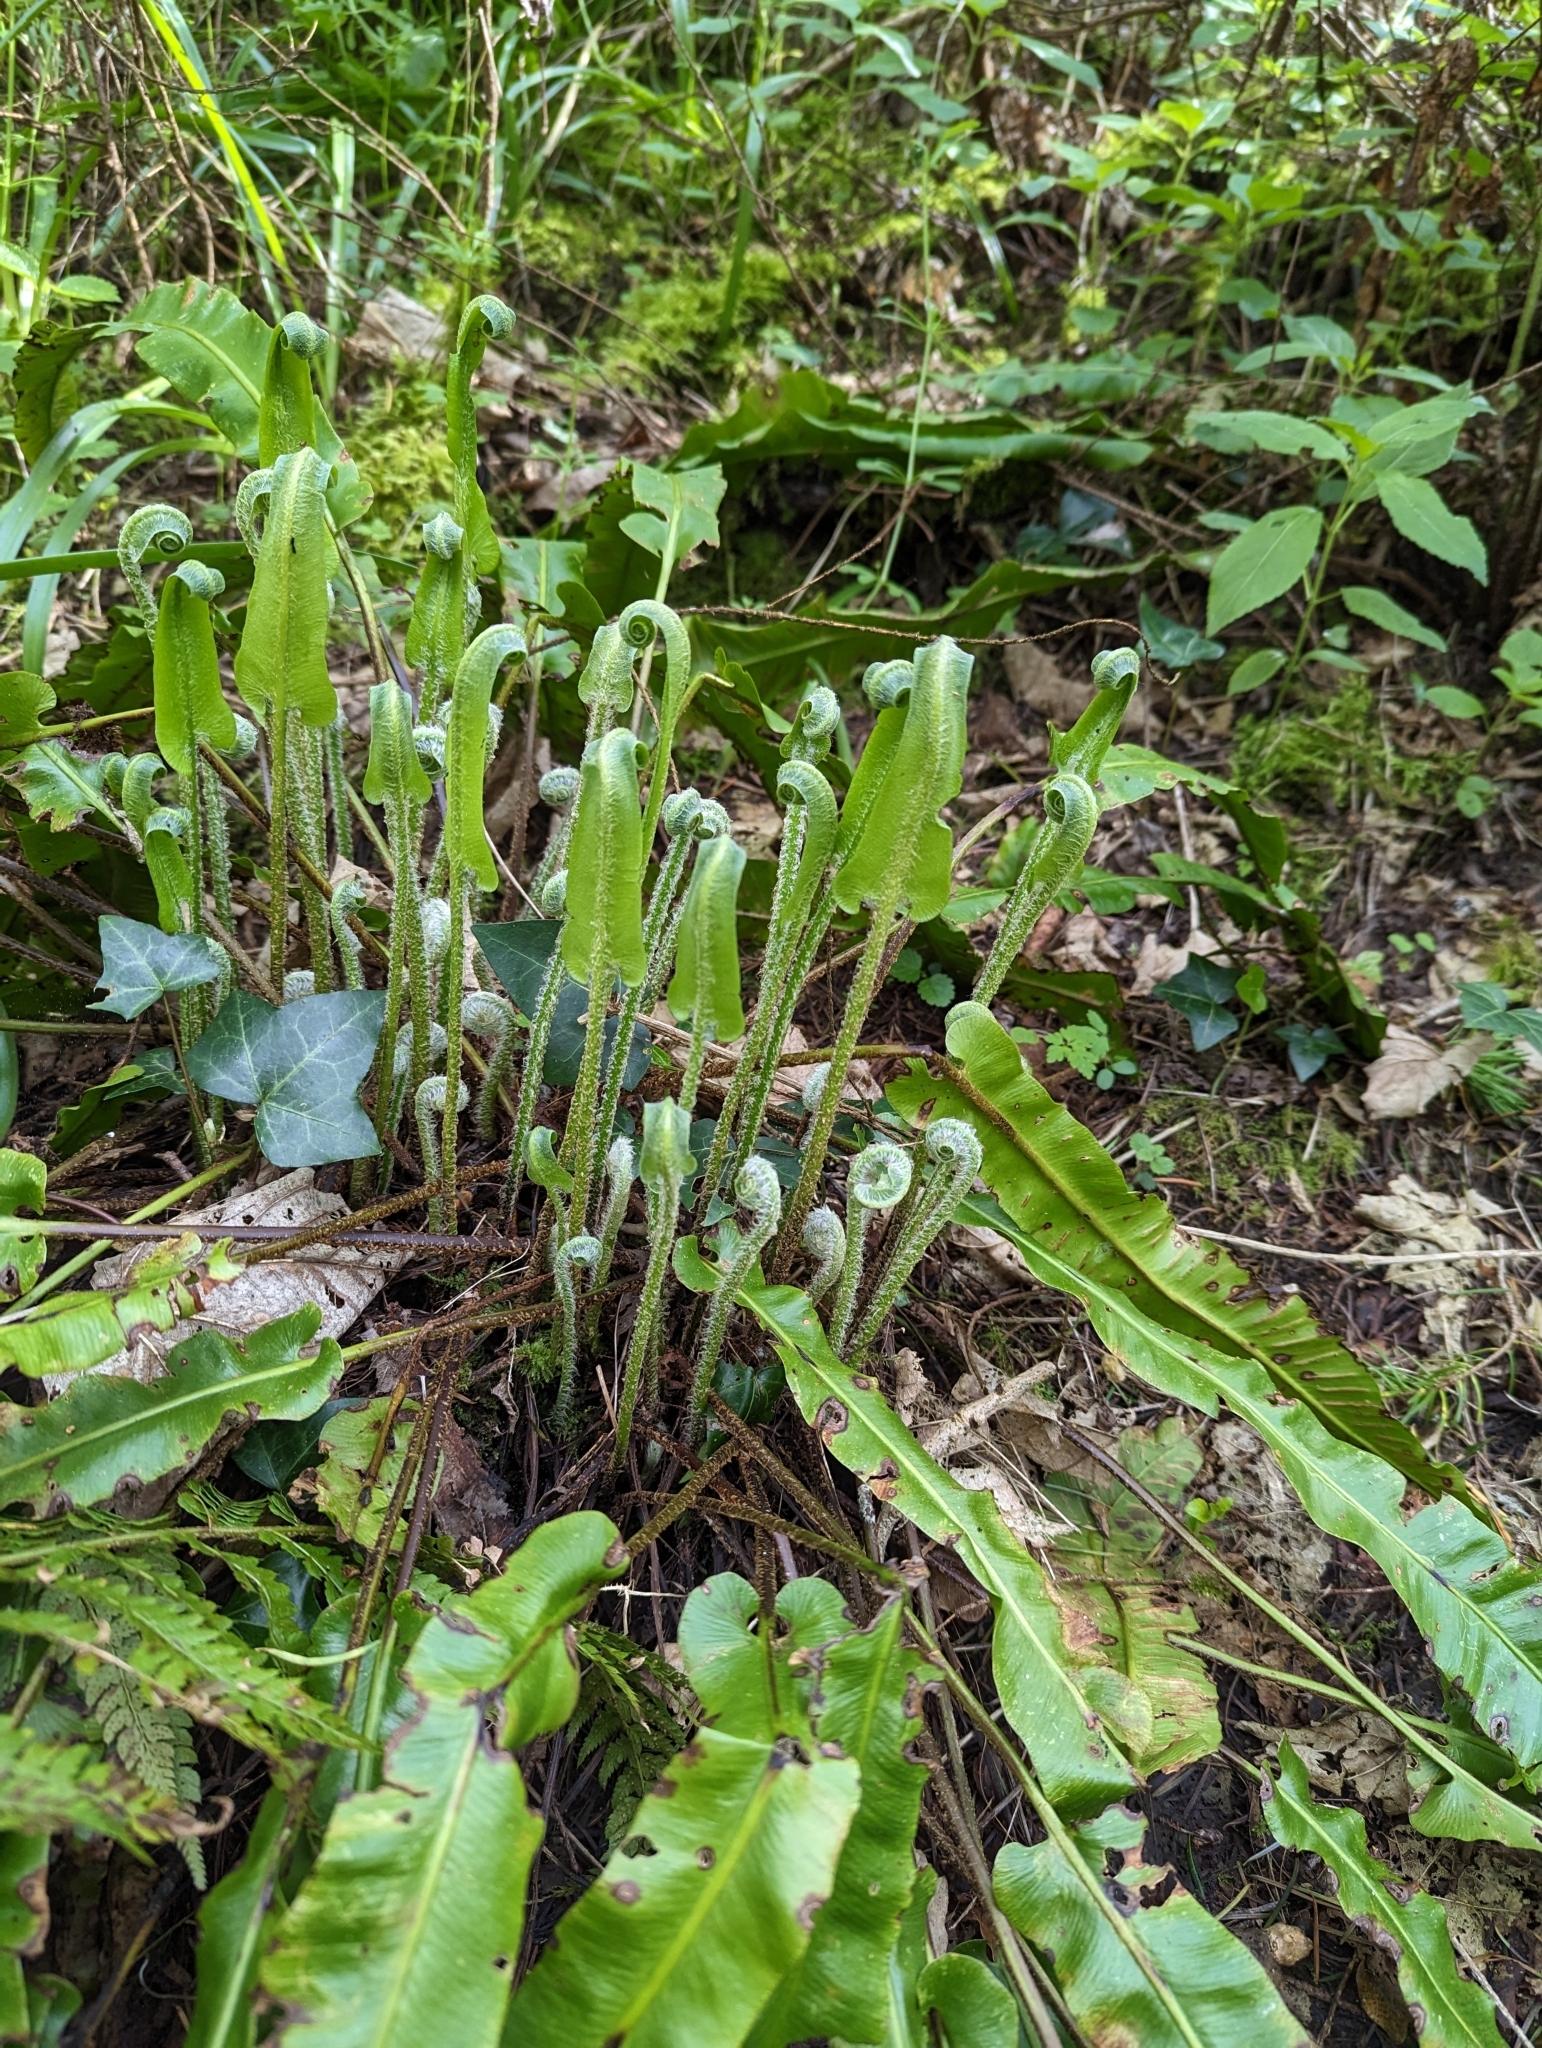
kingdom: Plantae
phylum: Tracheophyta
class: Polypodiopsida
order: Polypodiales
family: Aspleniaceae
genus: Asplenium
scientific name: Asplenium scolopendrium
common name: Hart's-tongue fern
